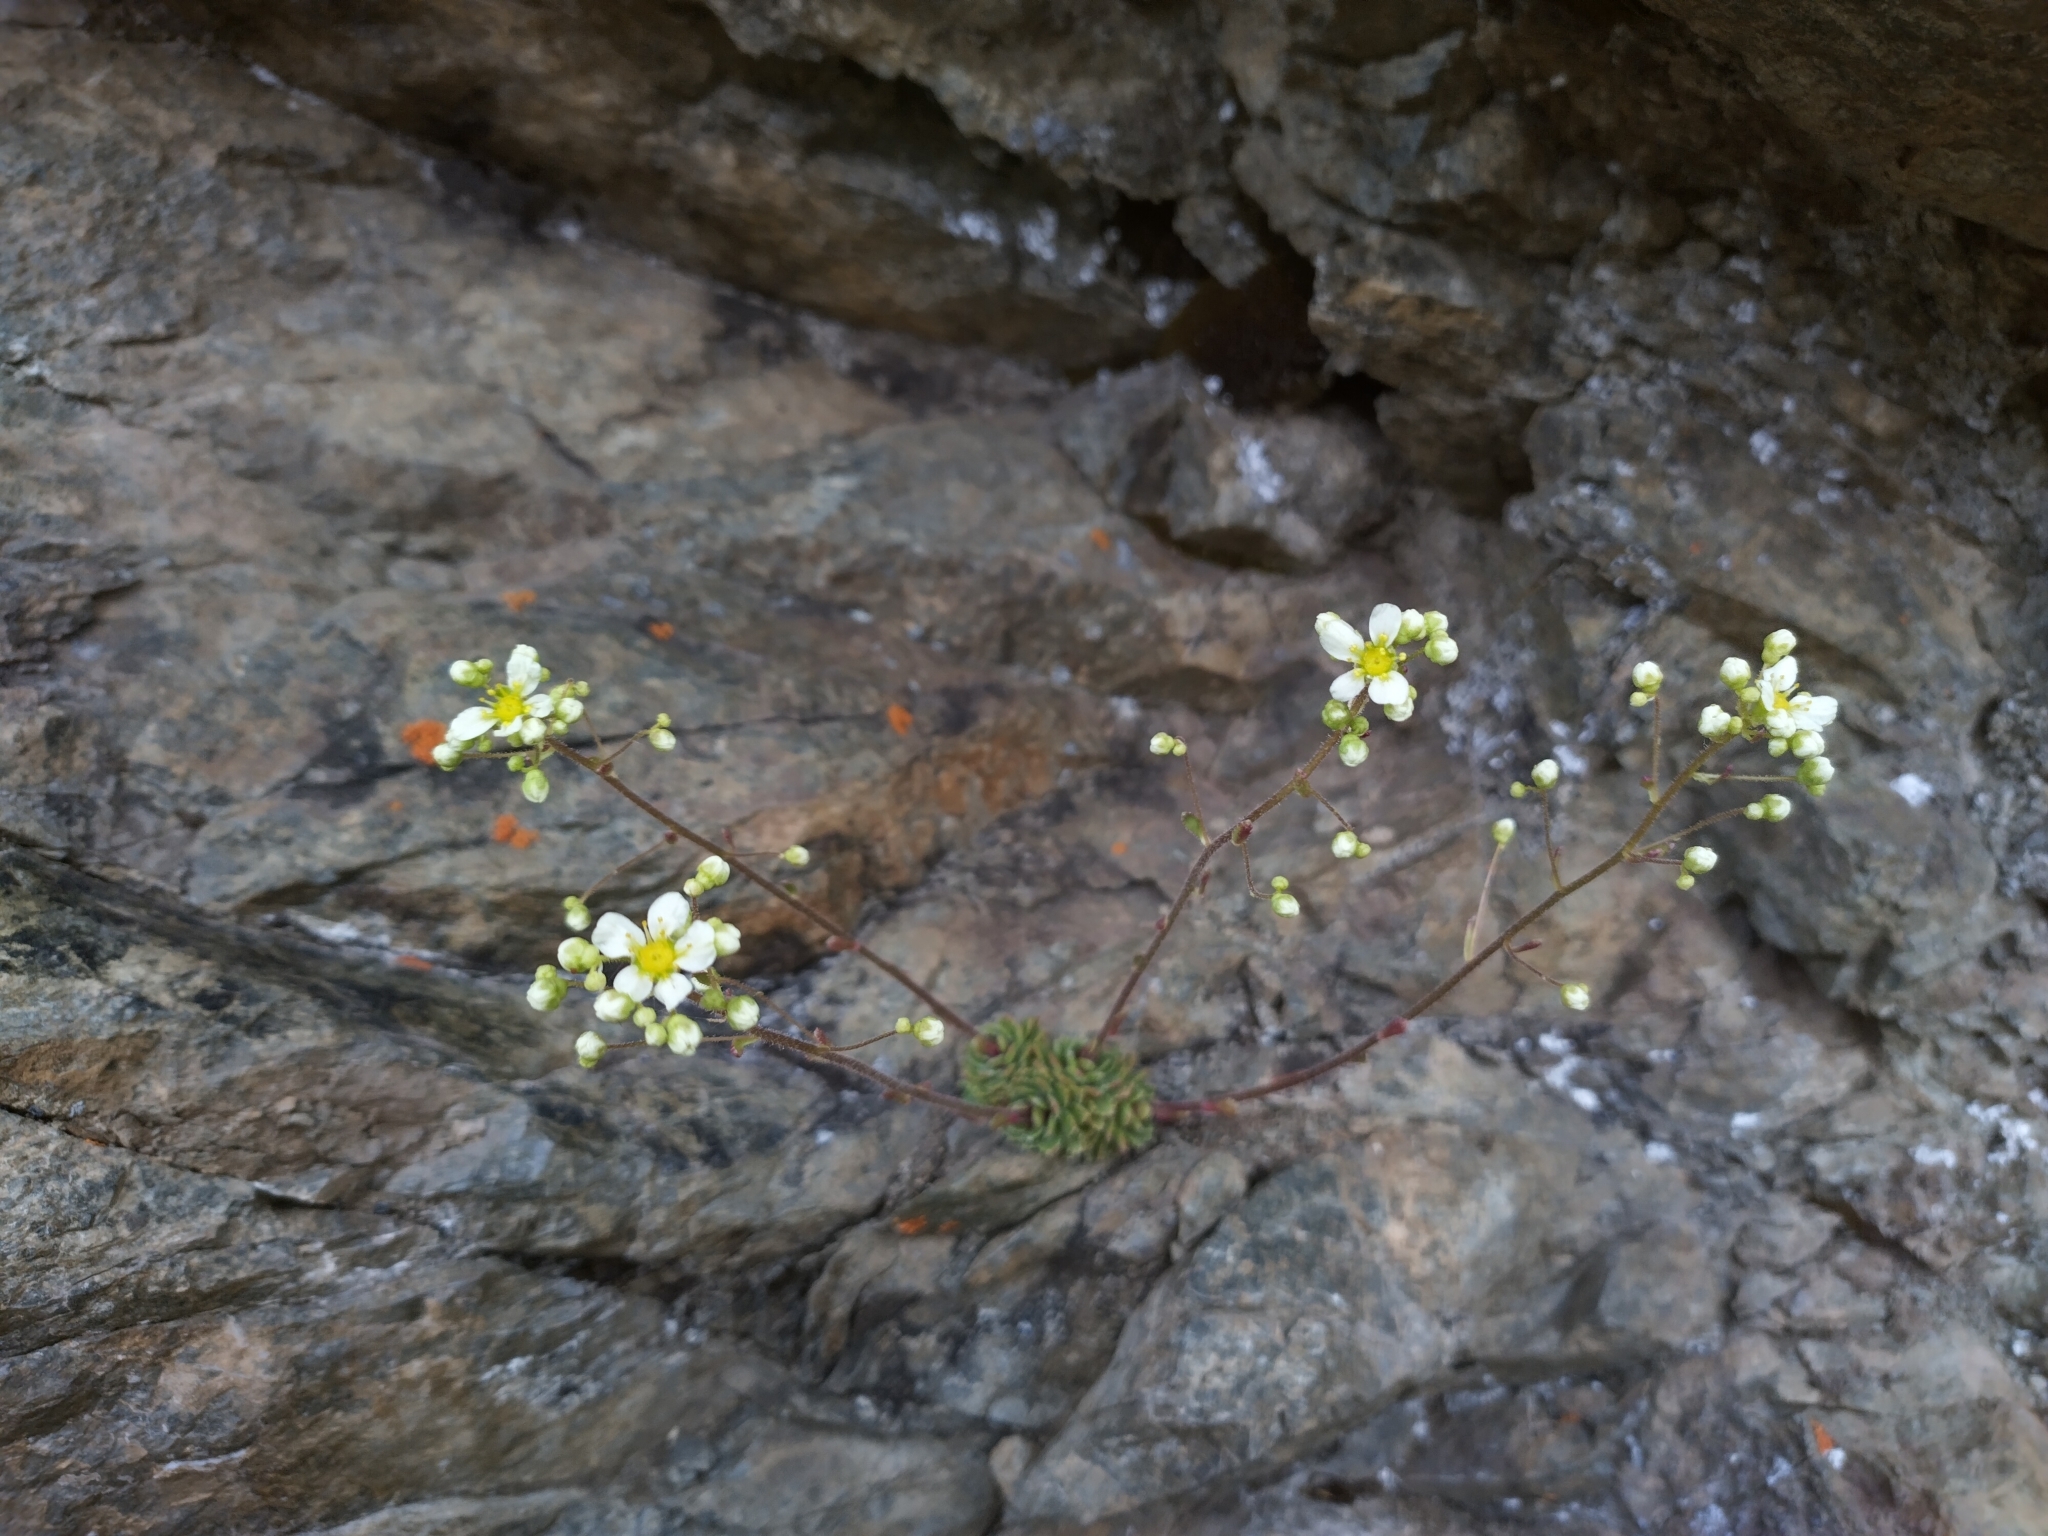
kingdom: Plantae
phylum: Tracheophyta
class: Magnoliopsida
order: Saxifragales
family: Saxifragaceae
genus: Saxifraga
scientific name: Saxifraga paniculata
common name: Livelong saxifrage
